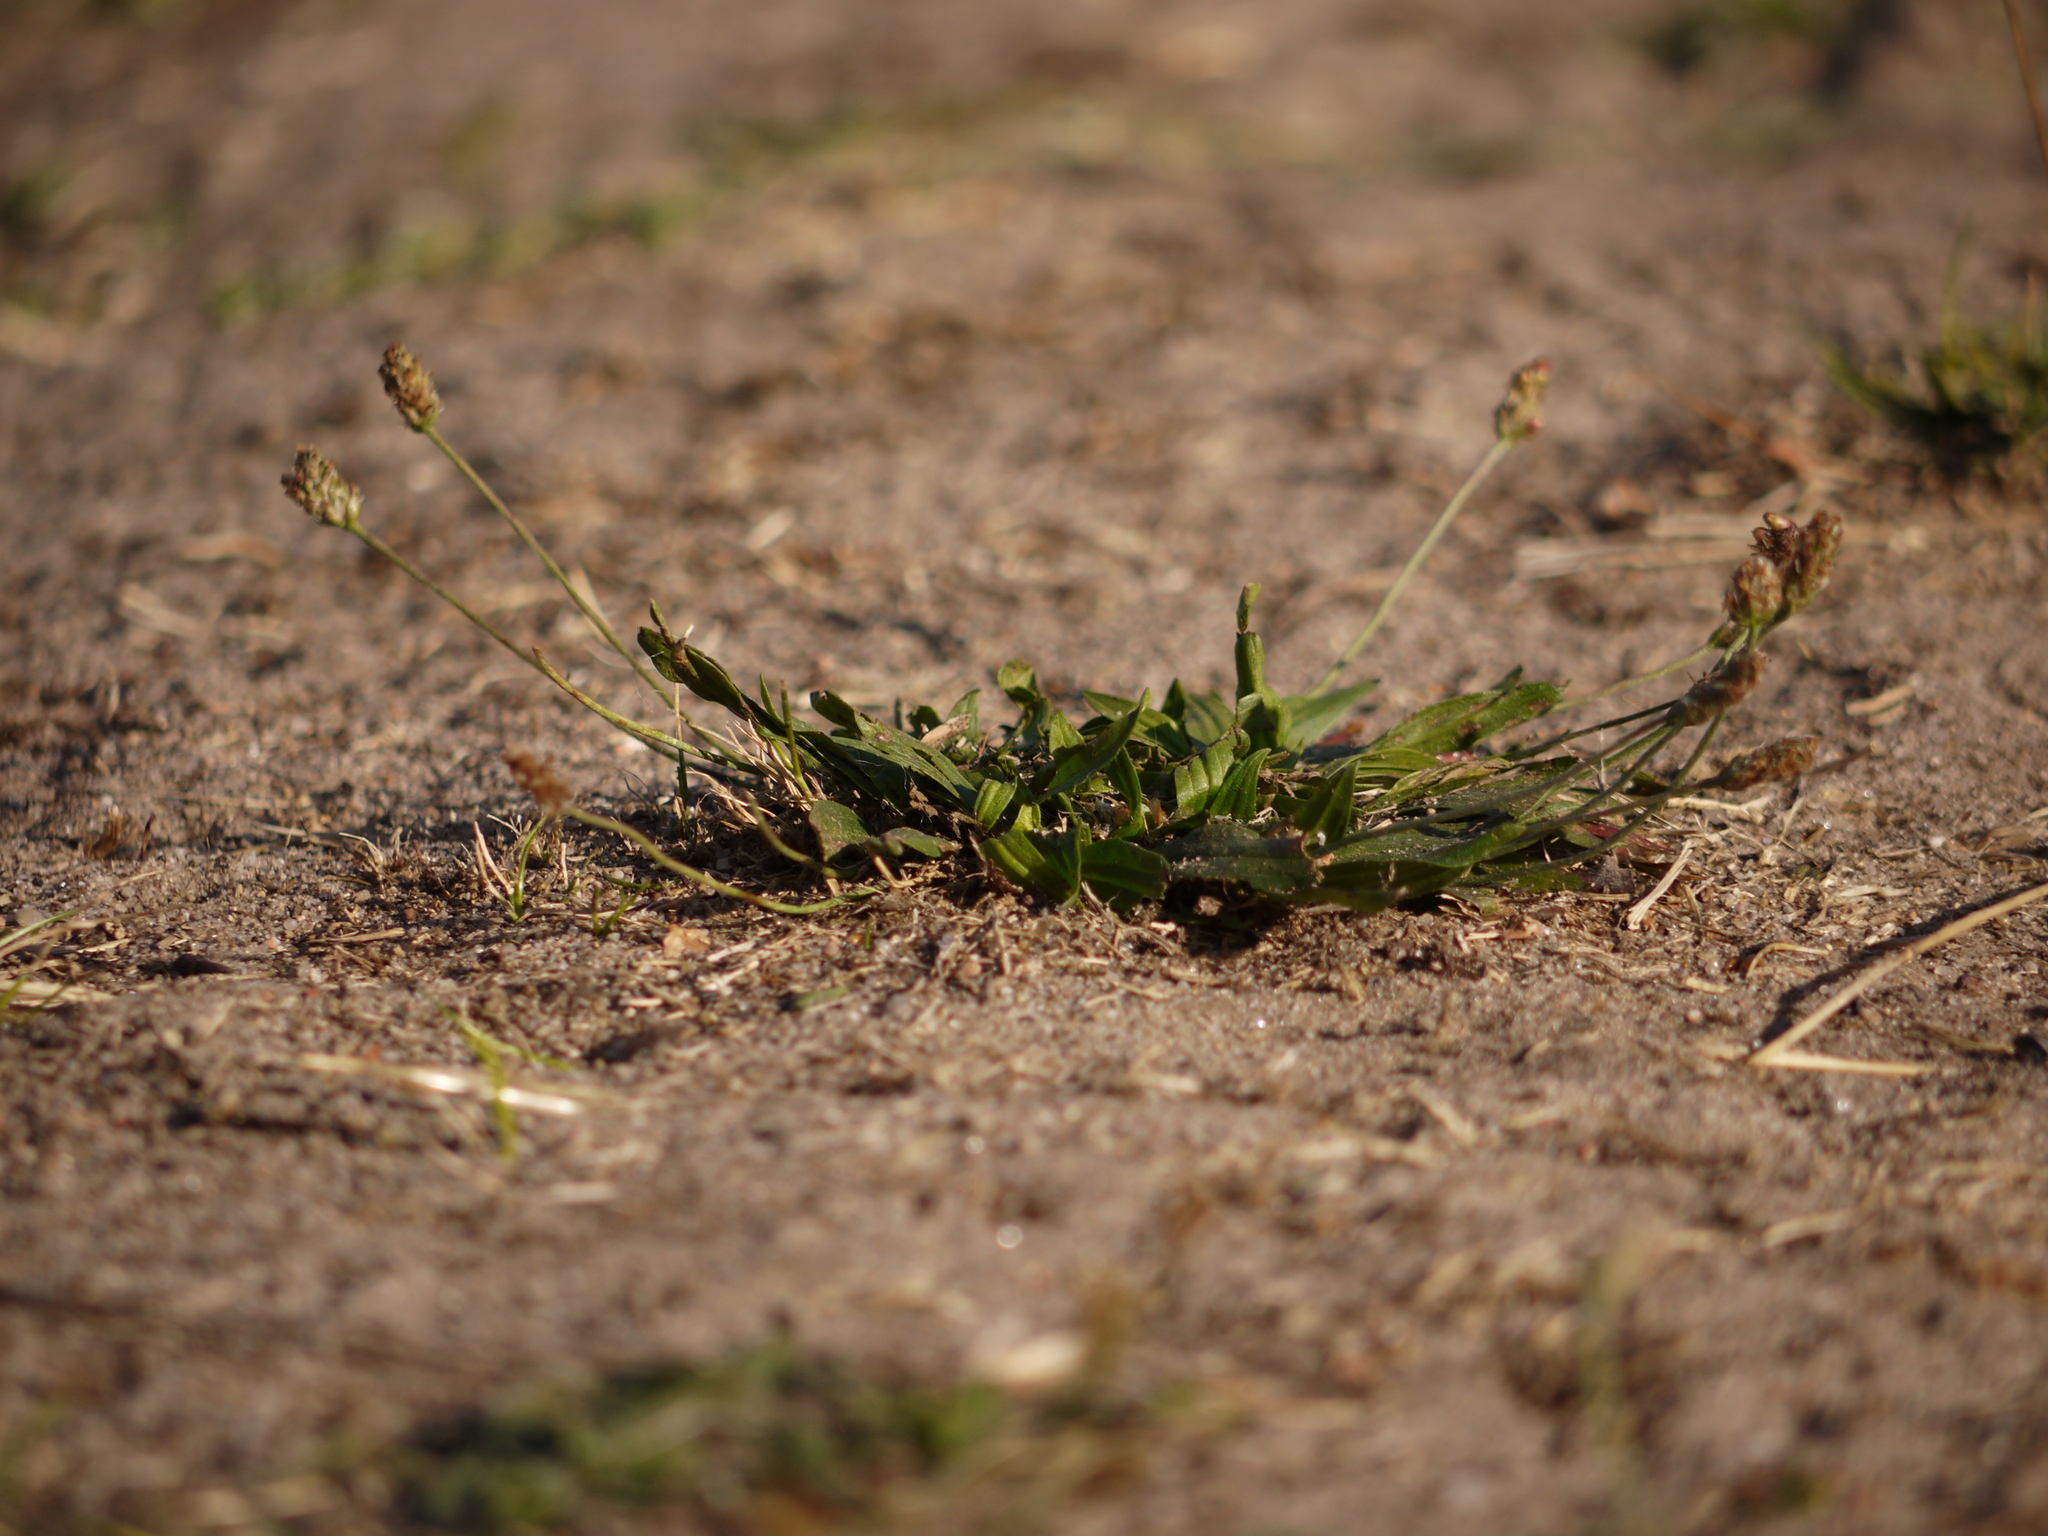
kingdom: Plantae
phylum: Tracheophyta
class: Magnoliopsida
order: Lamiales
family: Plantaginaceae
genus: Plantago
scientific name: Plantago lanceolata
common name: Ribwort plantain
